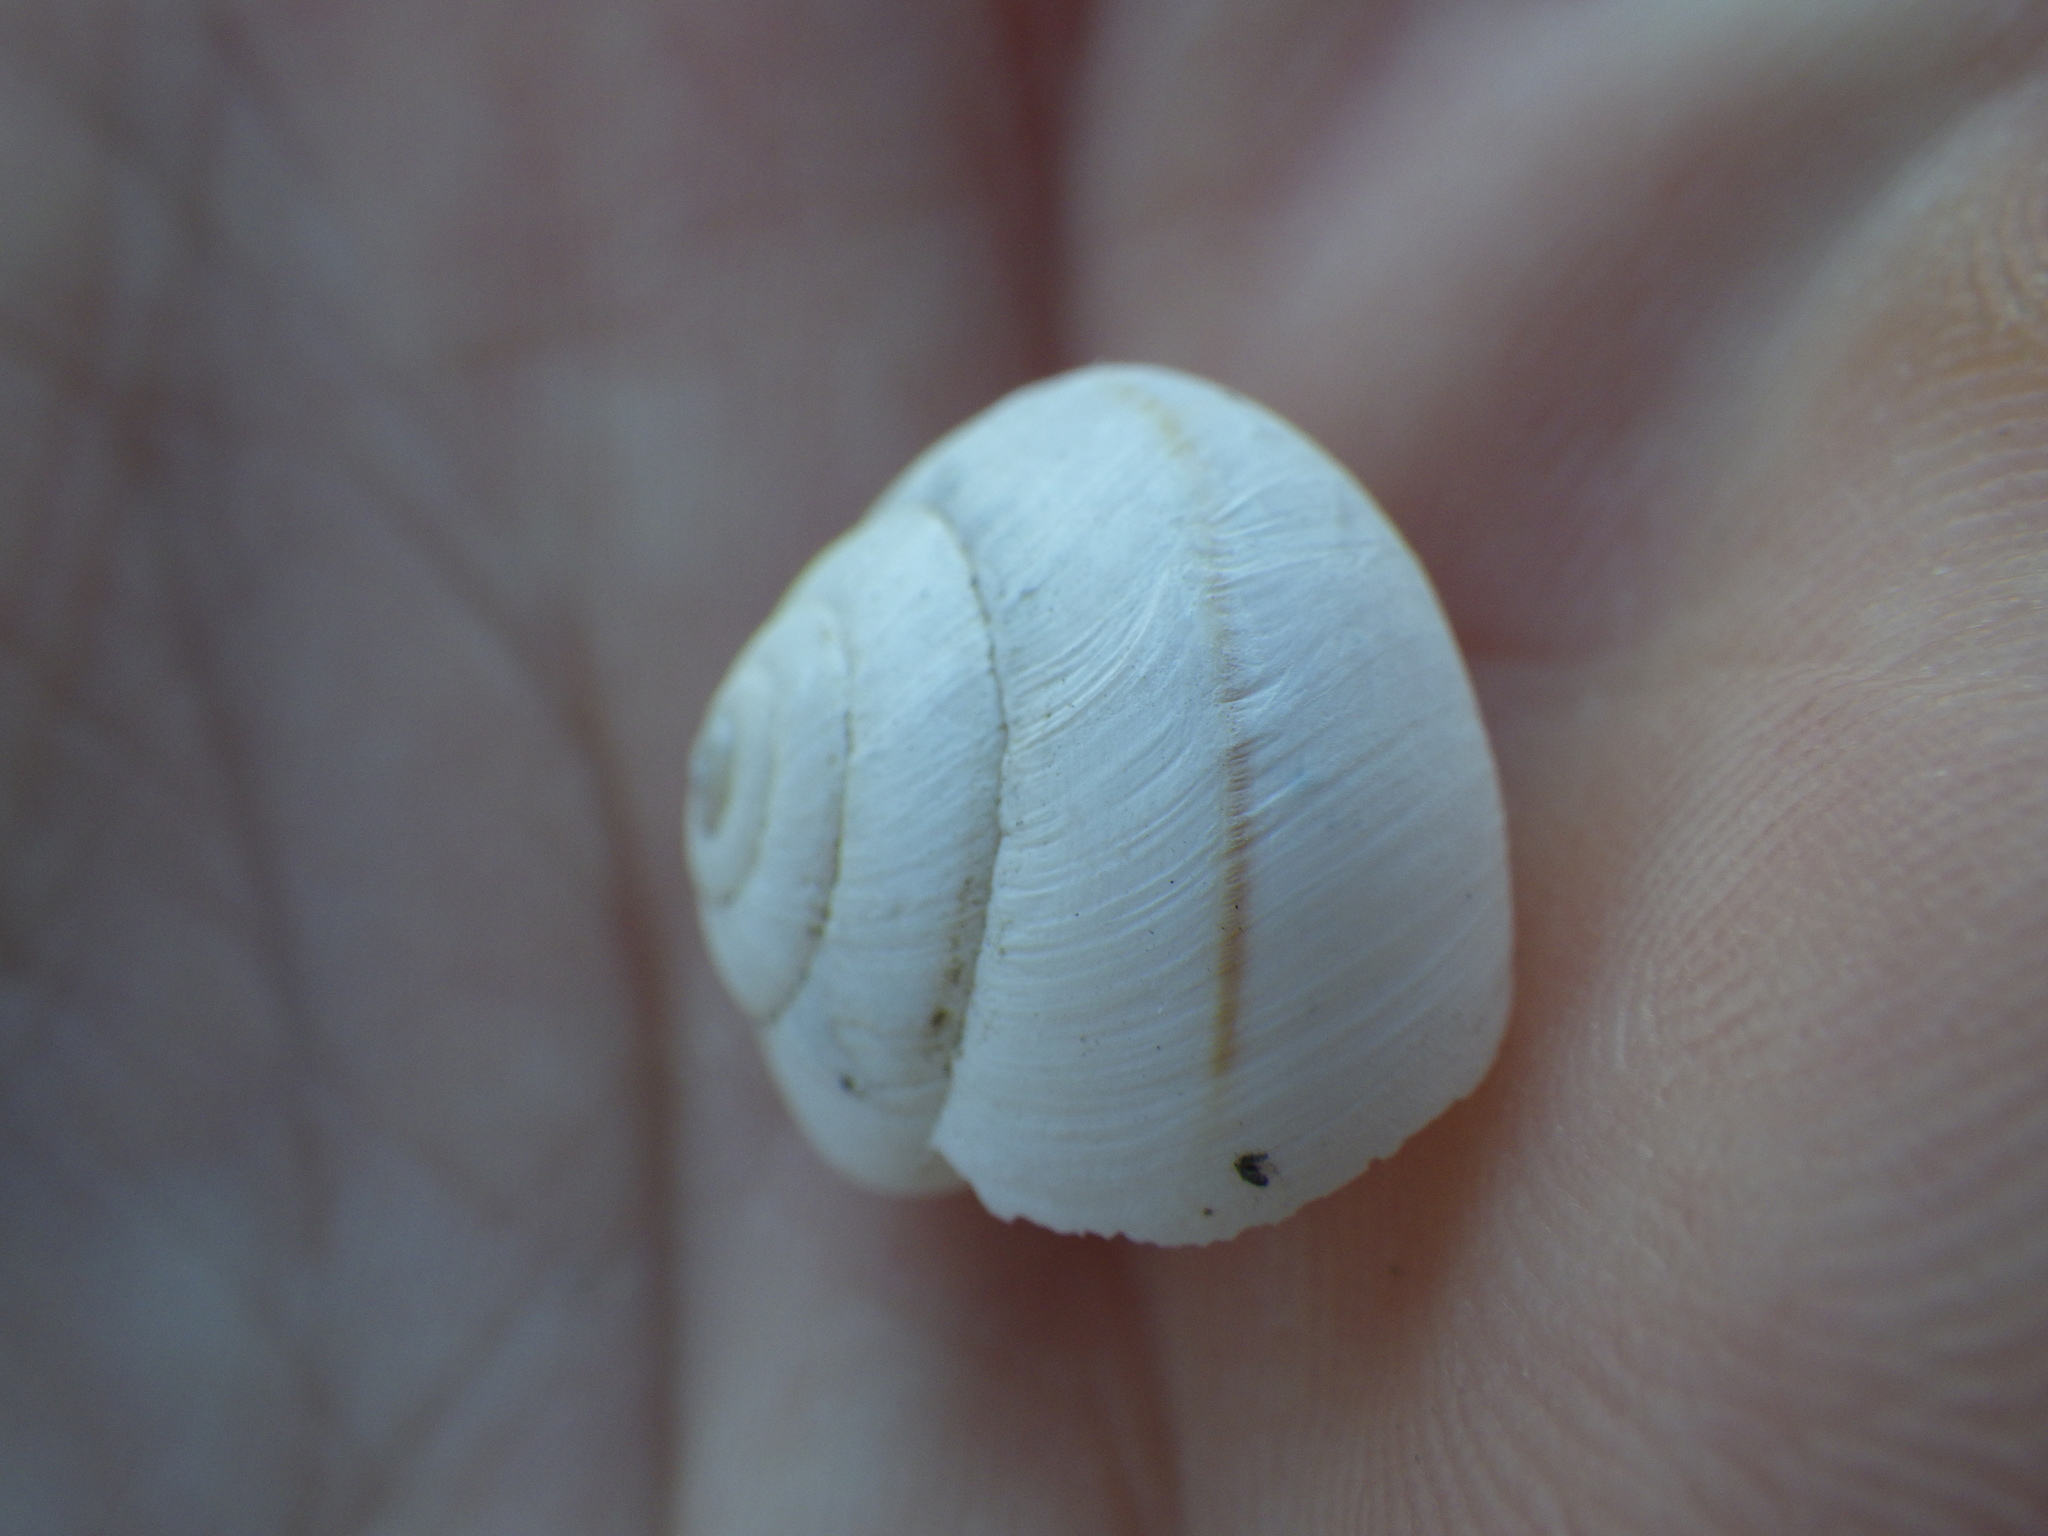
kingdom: Animalia
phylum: Mollusca
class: Gastropoda
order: Stylommatophora
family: Xanthonychidae
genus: Helminthoglypta
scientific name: Helminthoglypta traskii
